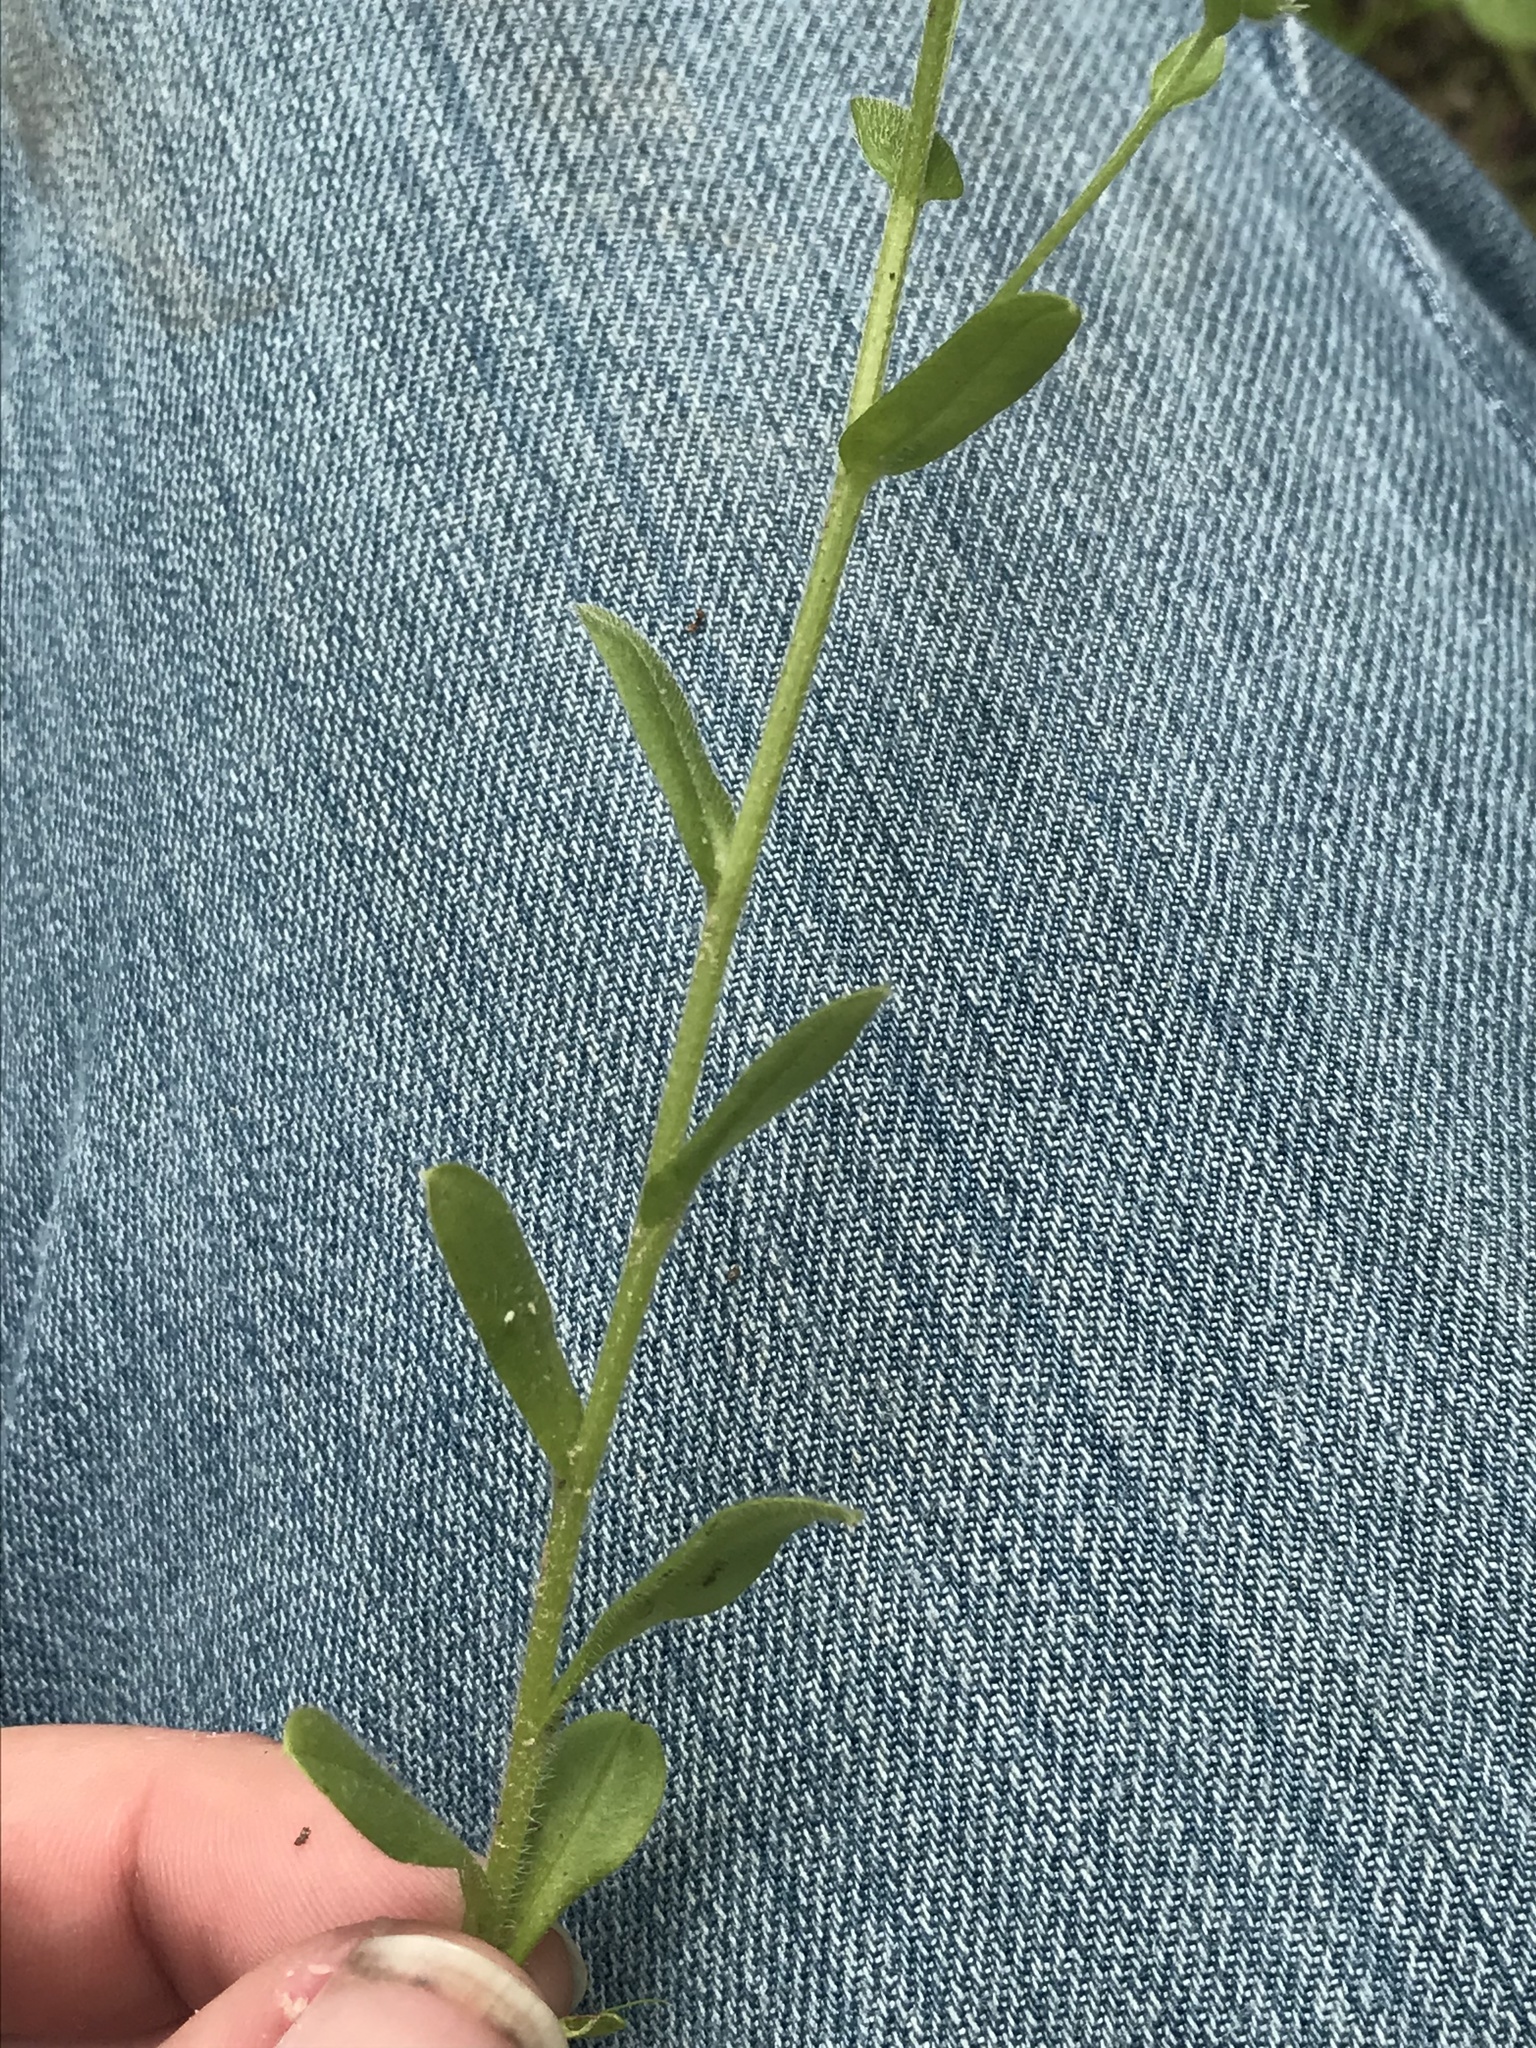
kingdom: Plantae
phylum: Tracheophyta
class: Magnoliopsida
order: Boraginales
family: Boraginaceae
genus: Myosotis
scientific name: Myosotis macrosperma
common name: Large-seed forget-me-not
